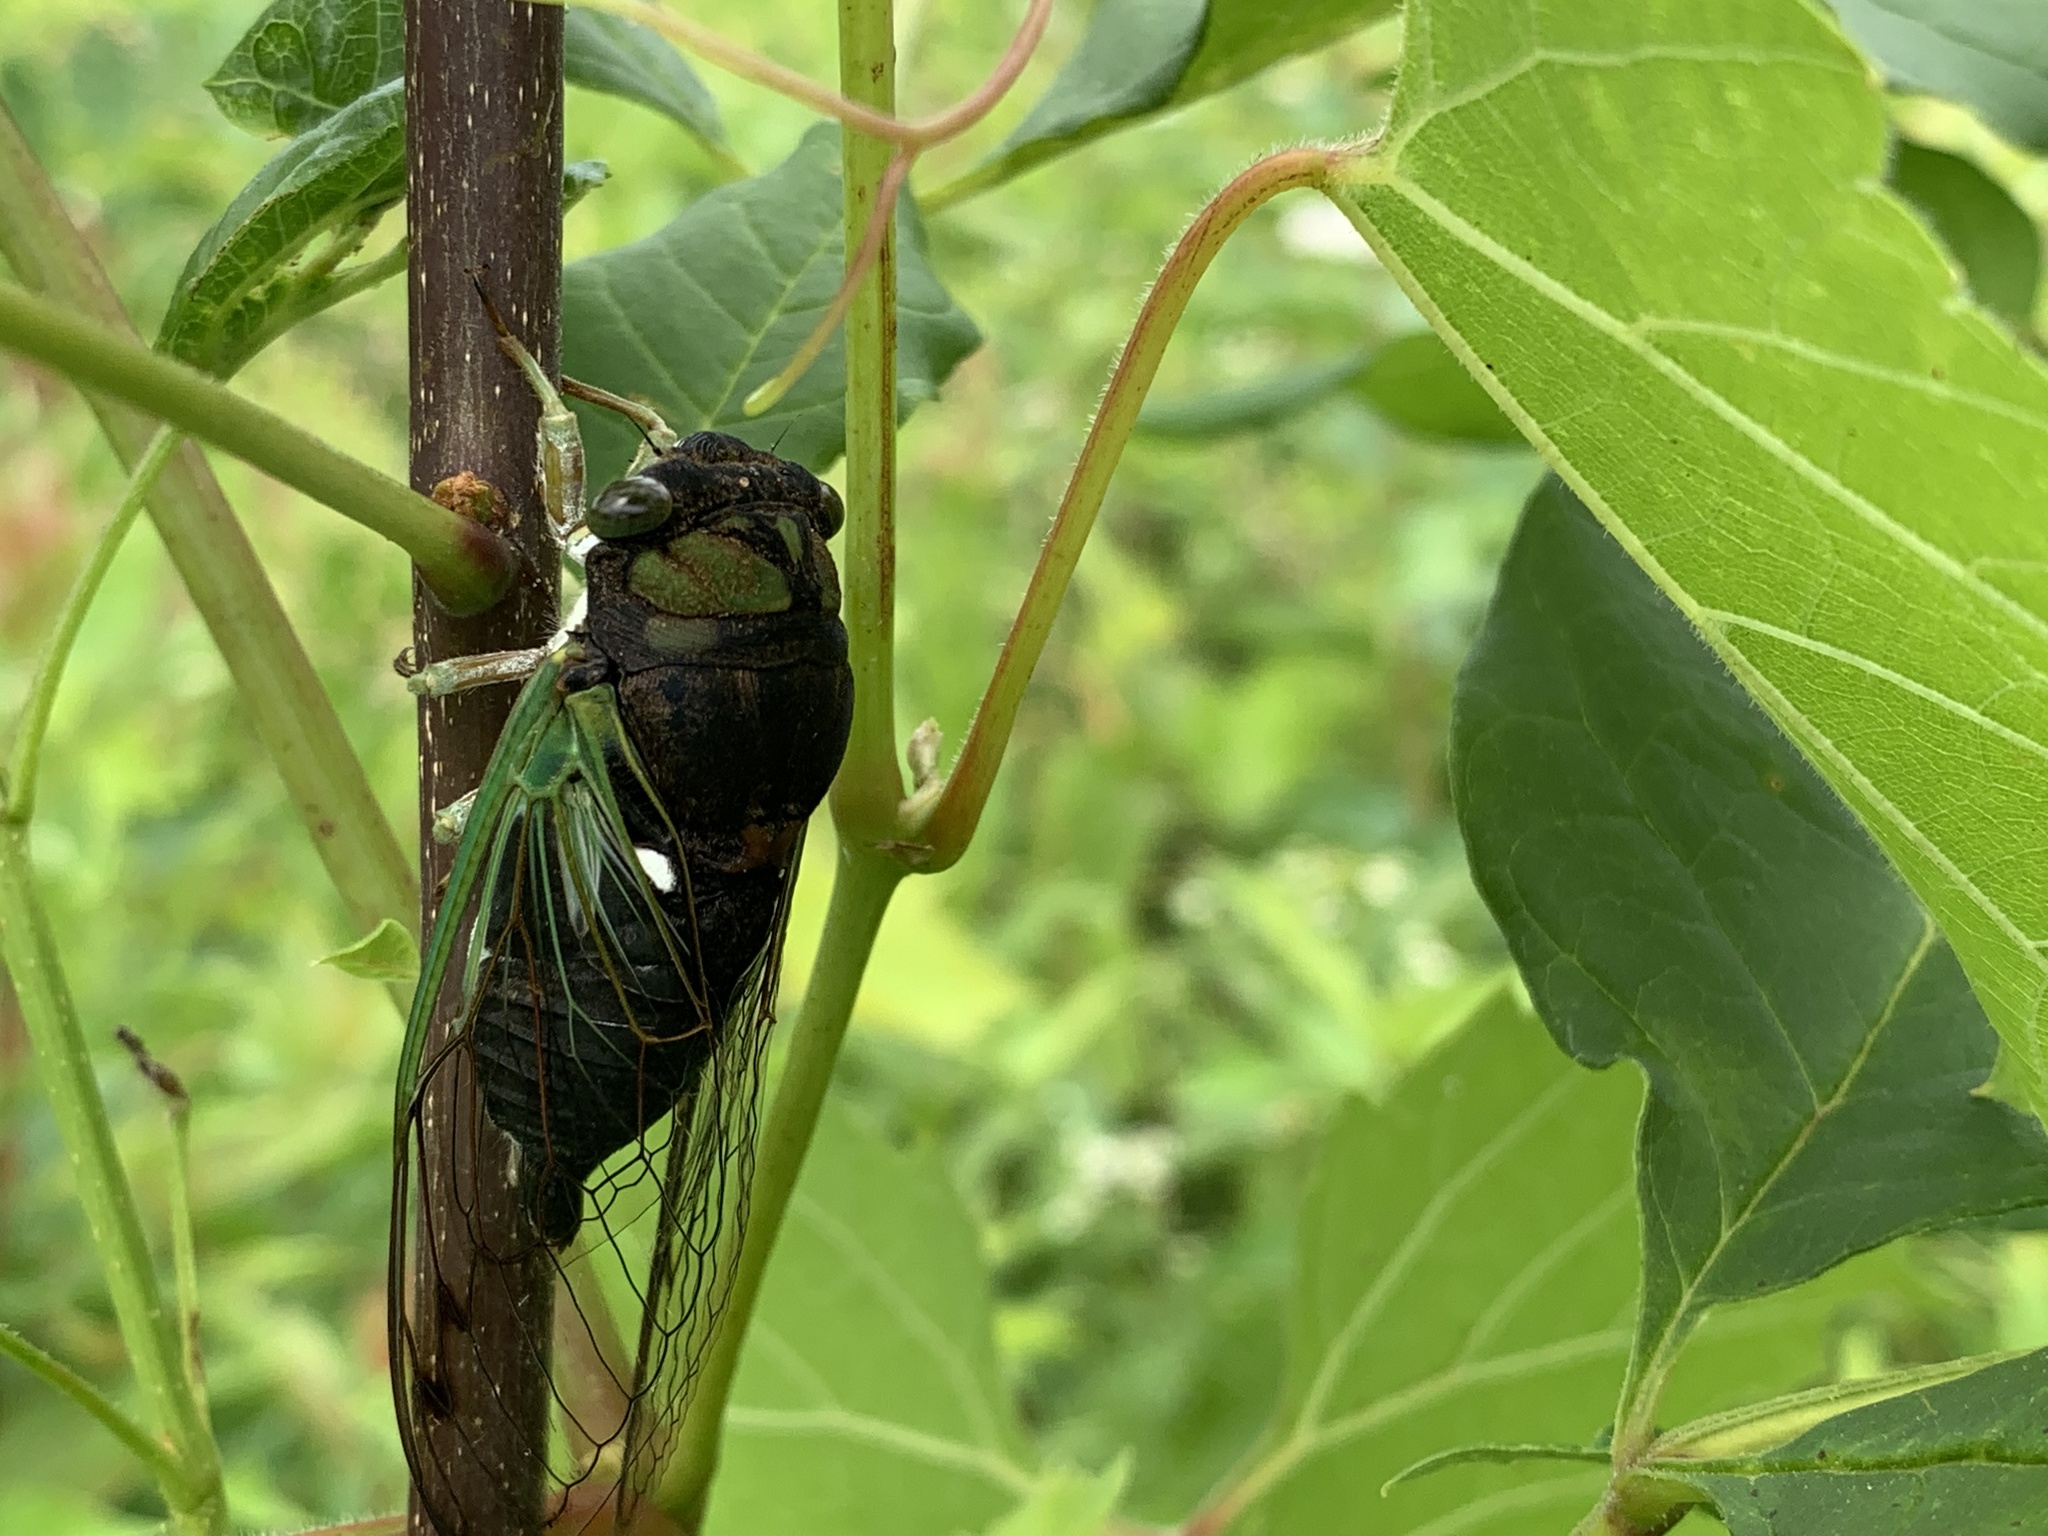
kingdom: Animalia
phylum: Arthropoda
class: Insecta
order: Hemiptera
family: Cicadidae
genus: Neotibicen
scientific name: Neotibicen tibicen
